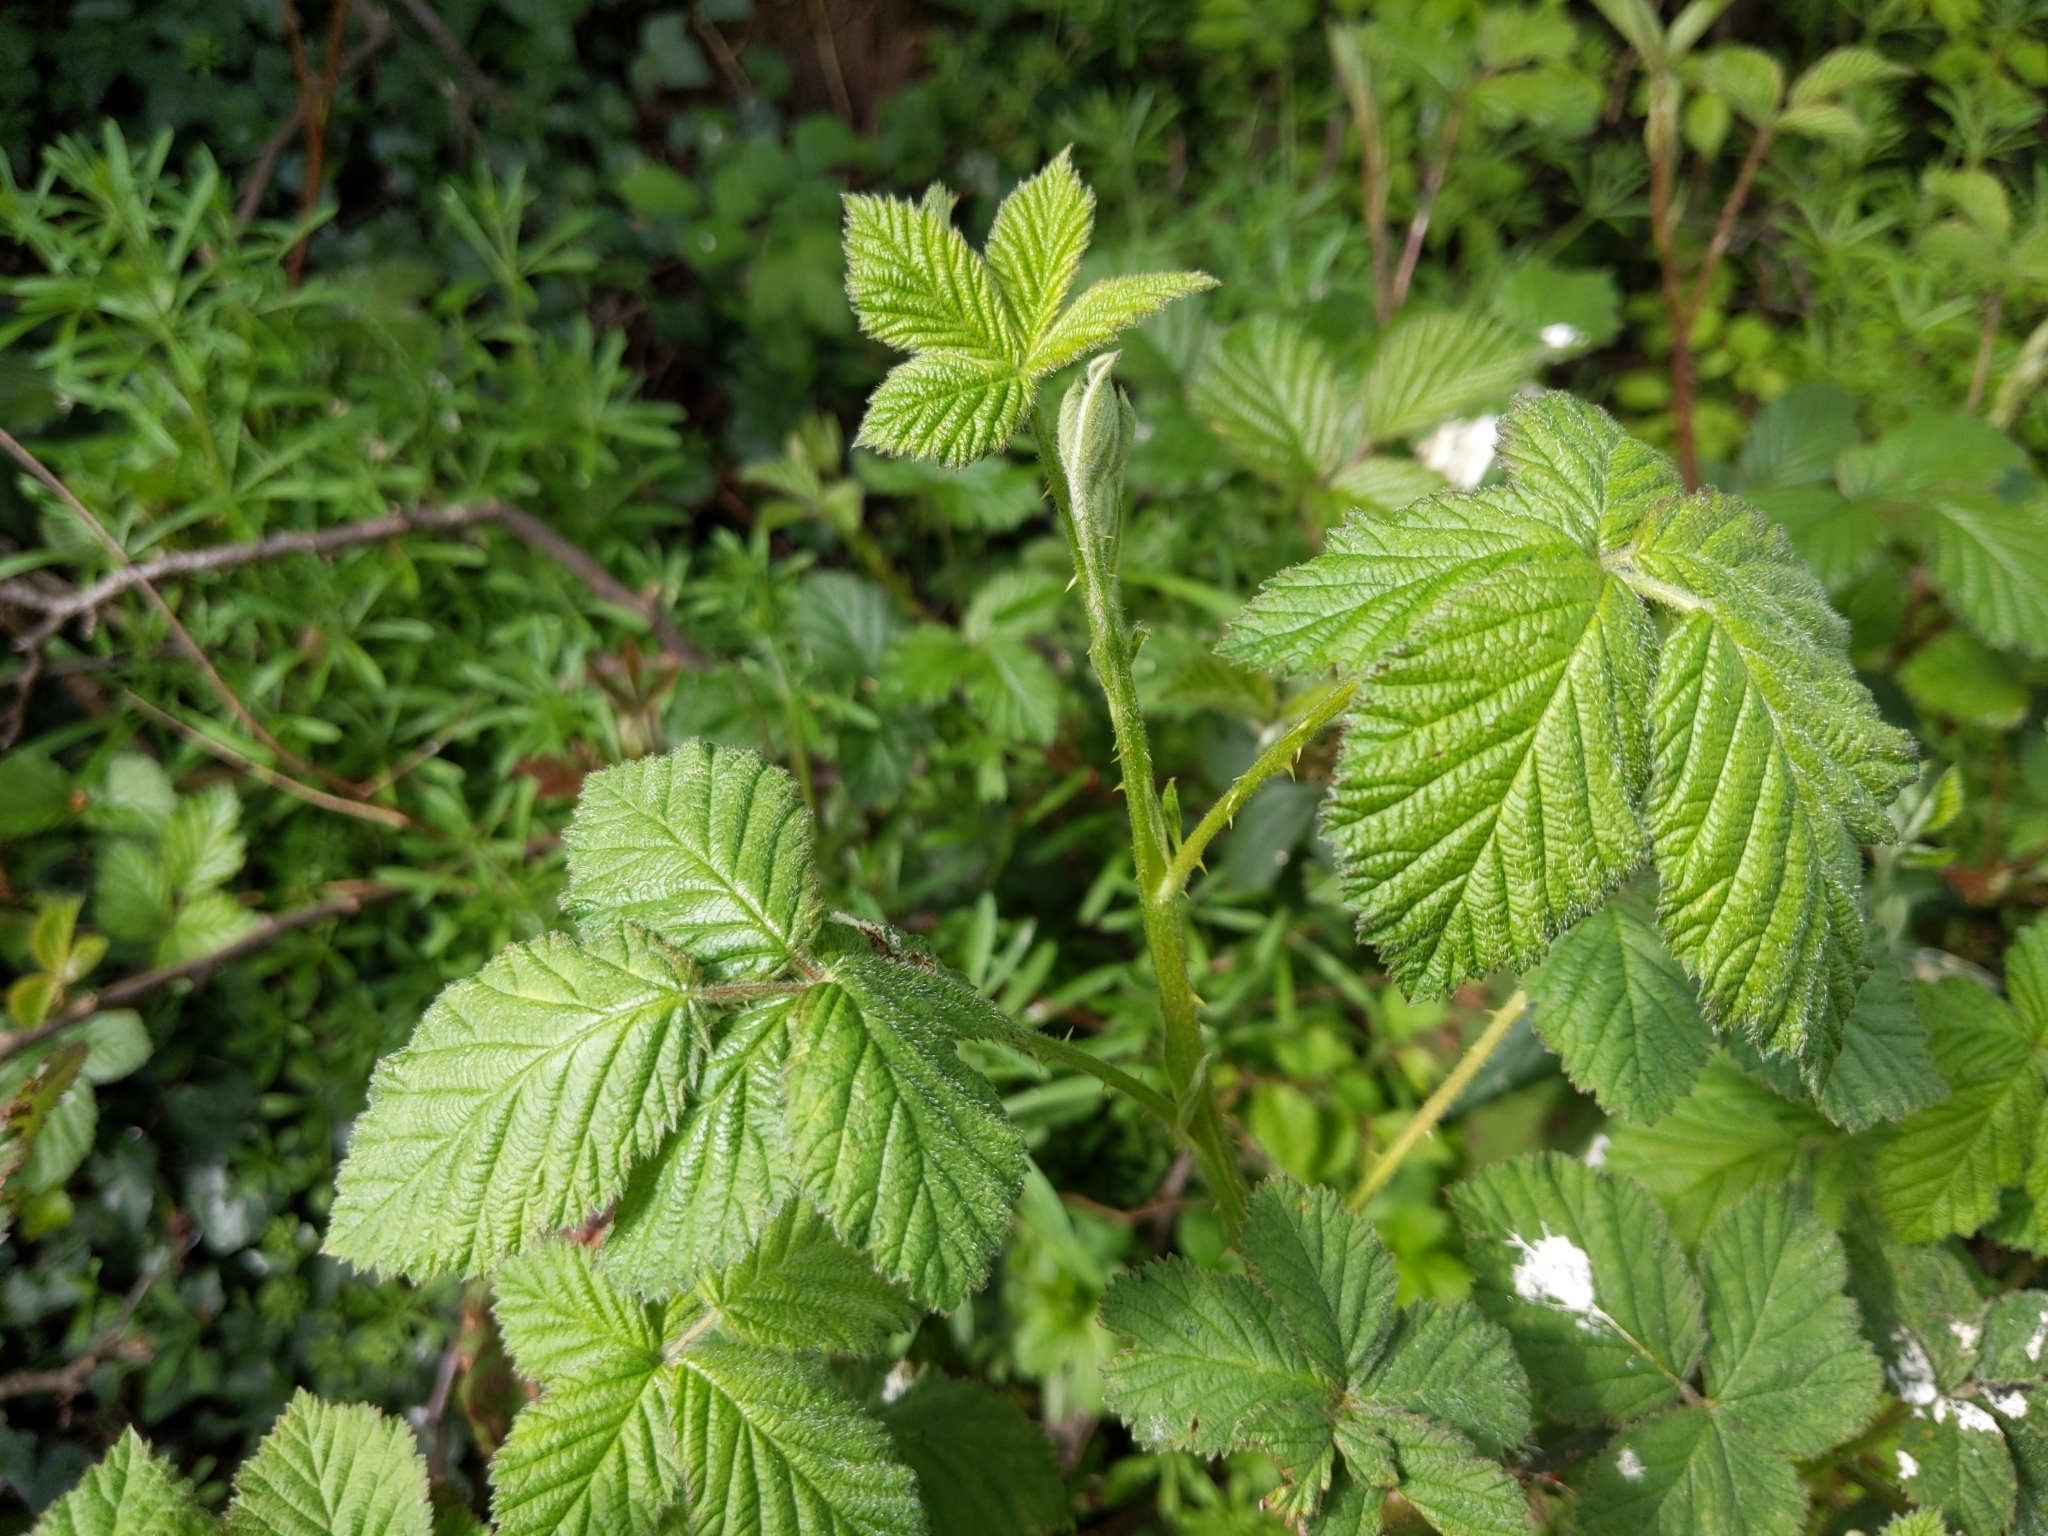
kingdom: Plantae
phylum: Tracheophyta
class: Magnoliopsida
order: Rosales
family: Rosaceae
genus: Rubus
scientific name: Rubus fruticosus
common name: Blackberry, bramble
